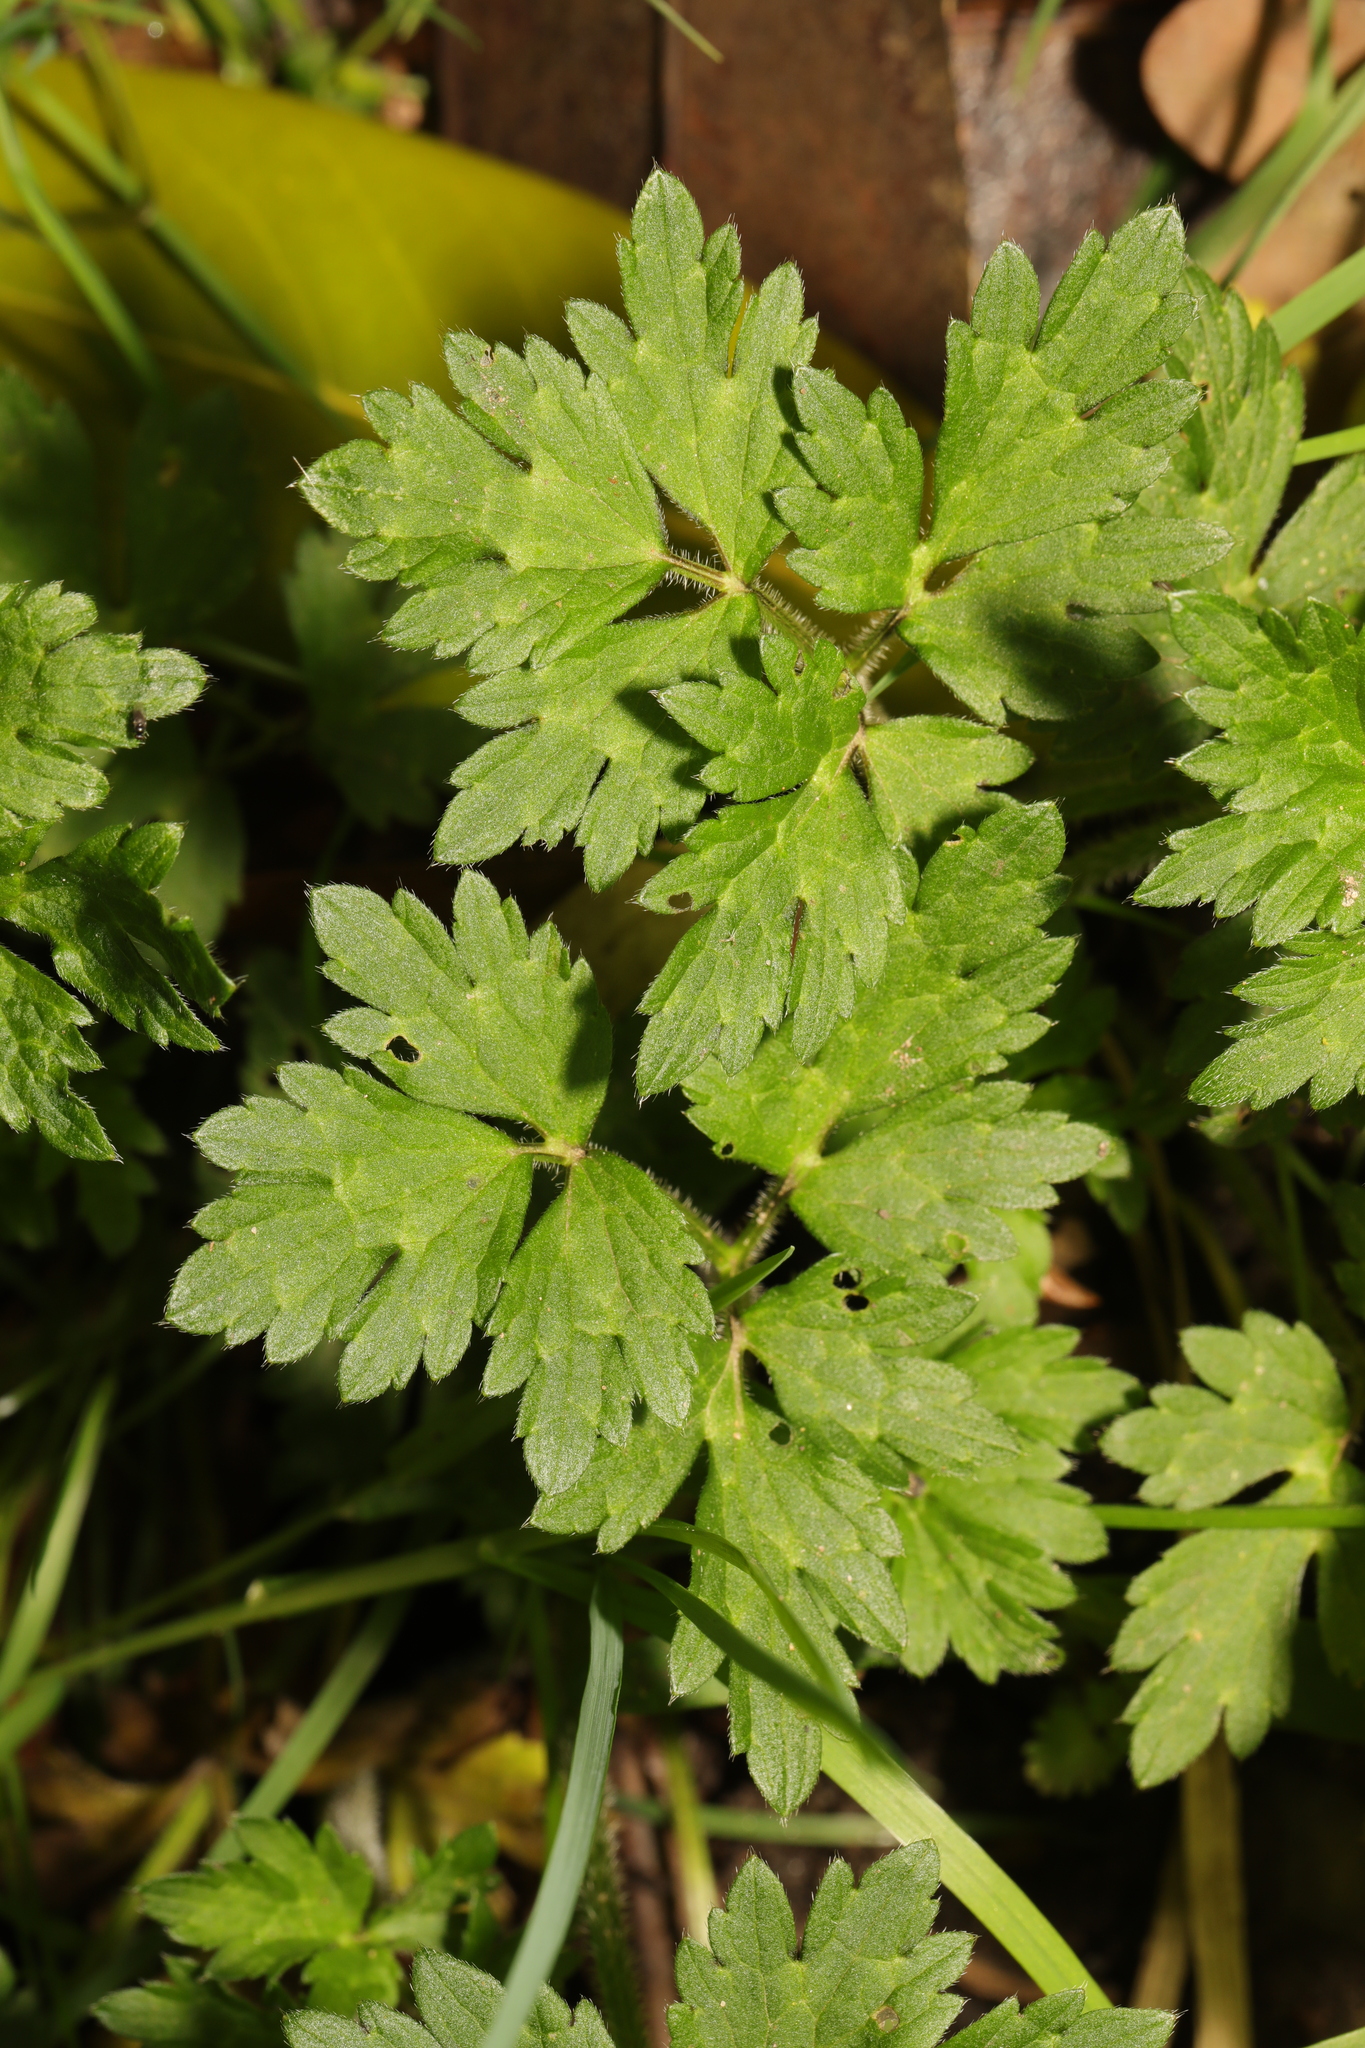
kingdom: Plantae
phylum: Tracheophyta
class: Magnoliopsida
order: Ranunculales
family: Ranunculaceae
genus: Ranunculus
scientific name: Ranunculus repens
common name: Creeping buttercup
